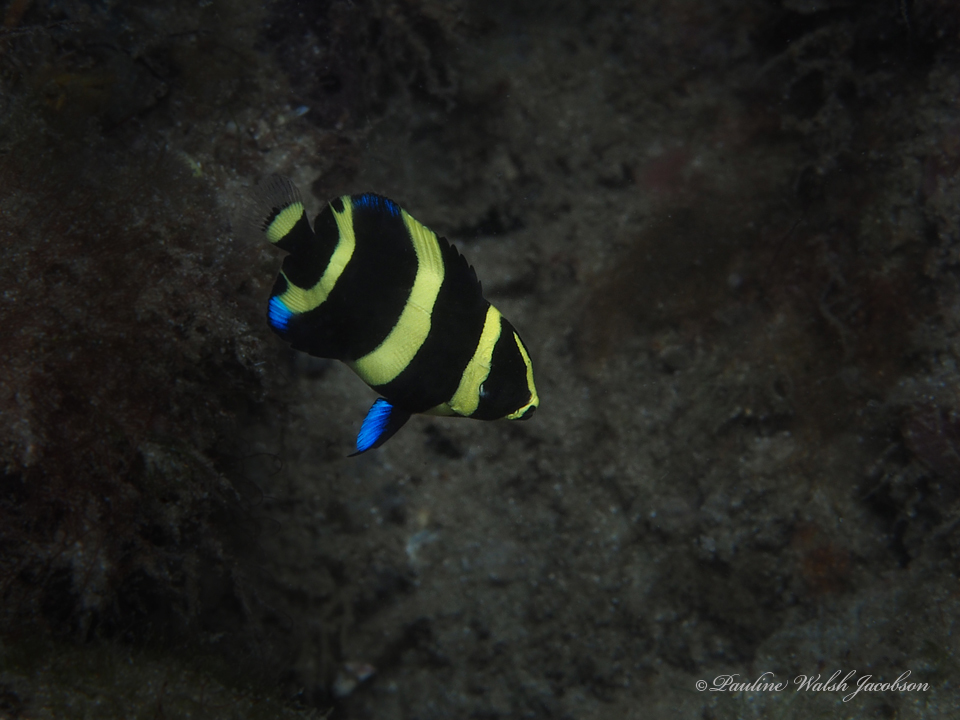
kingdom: Animalia
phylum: Chordata
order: Perciformes
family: Pomacanthidae
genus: Pomacanthus
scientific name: Pomacanthus arcuatus
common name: Gray angelfish
